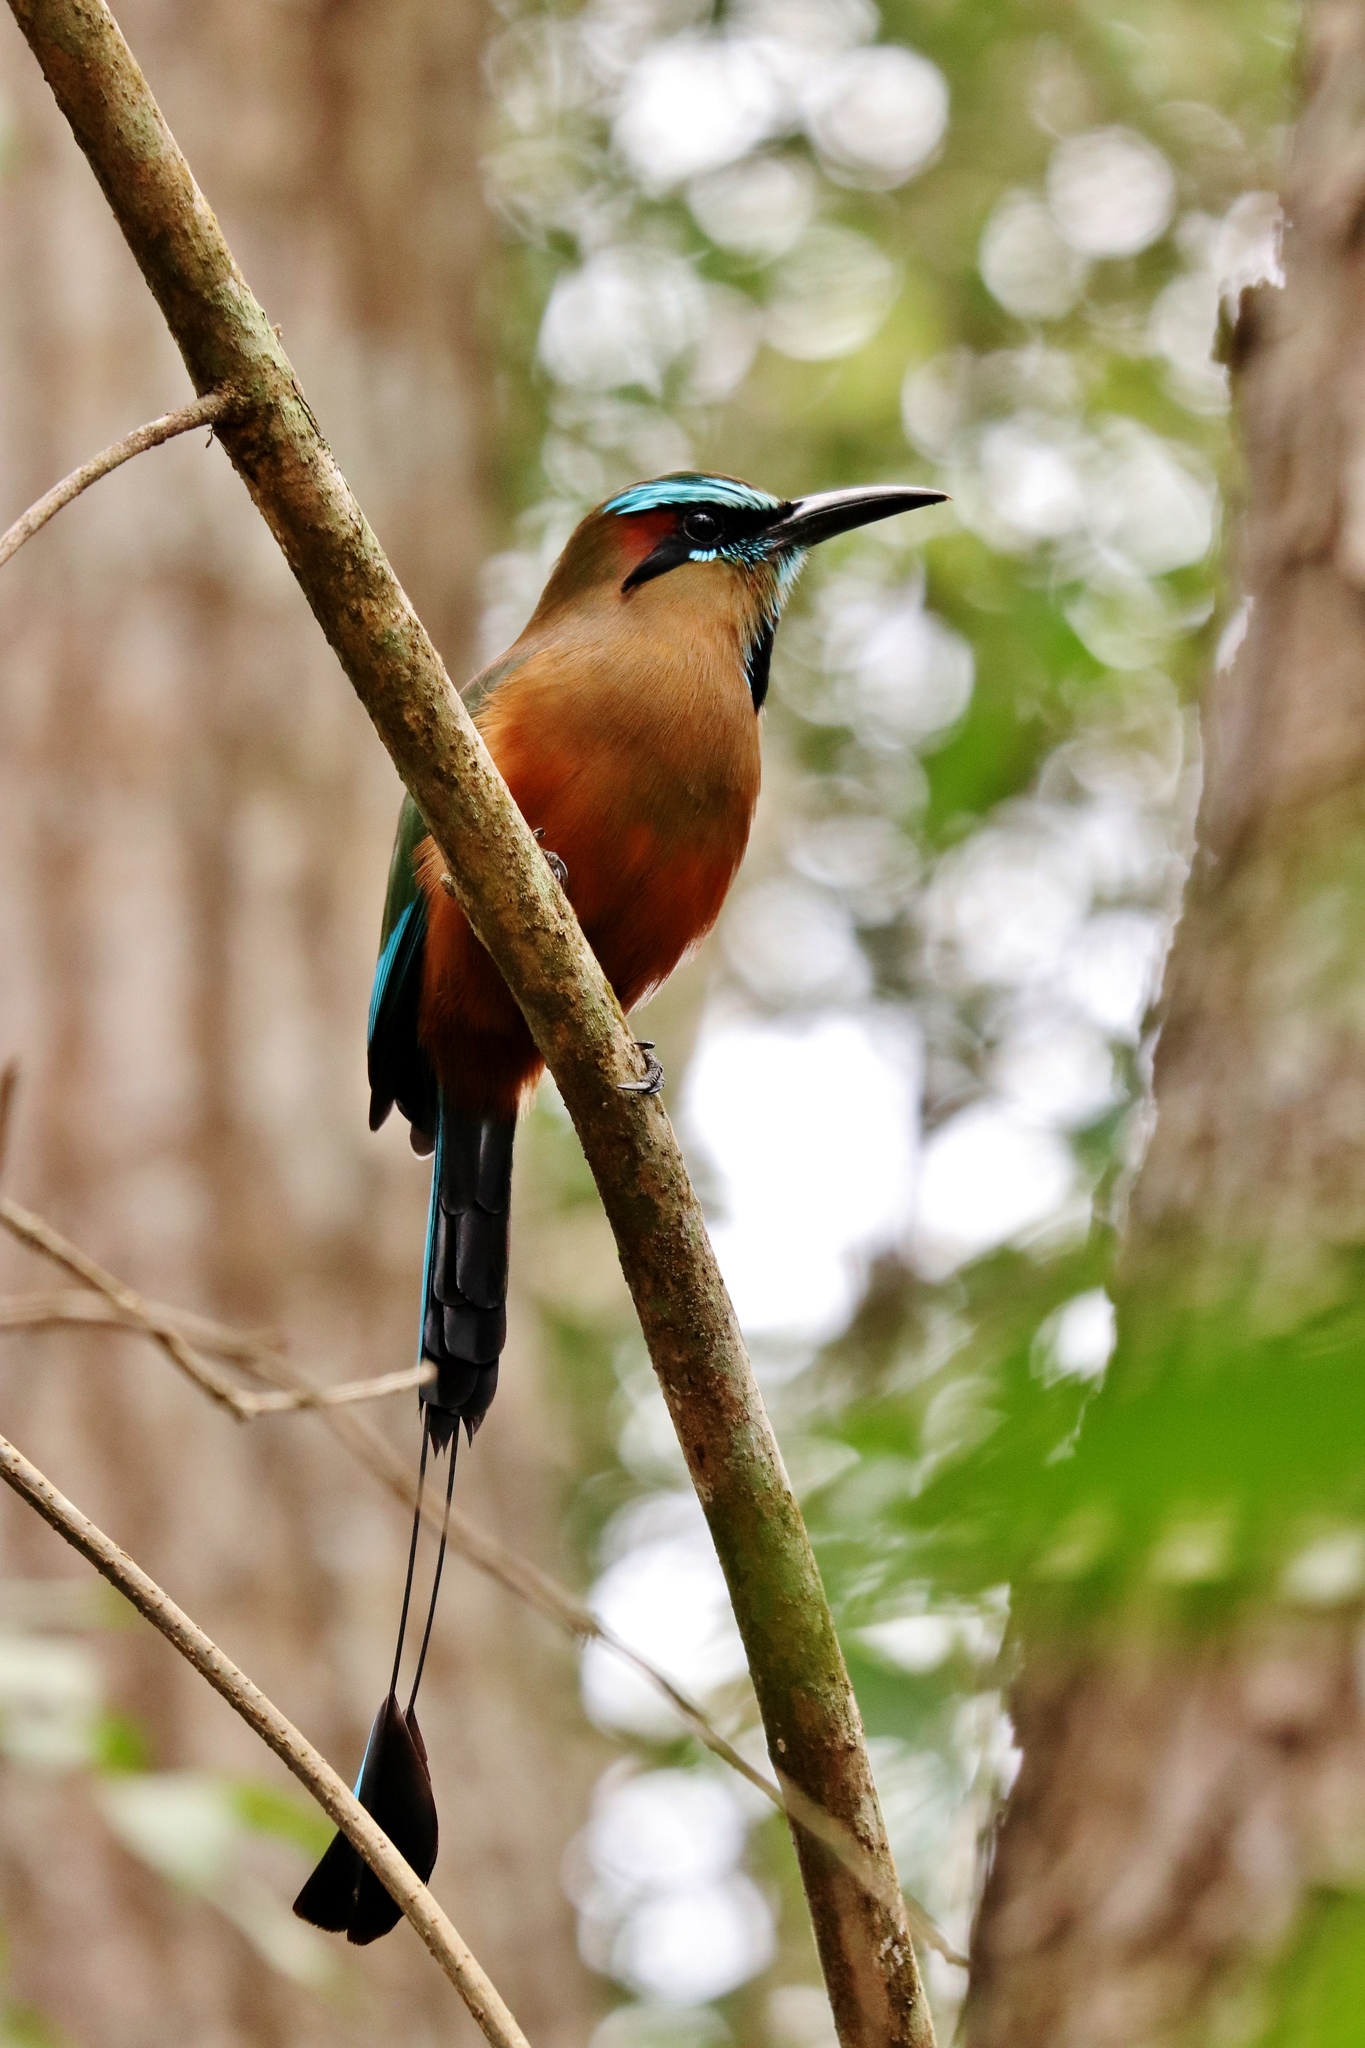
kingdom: Animalia
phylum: Chordata
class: Aves
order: Coraciiformes
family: Momotidae
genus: Eumomota
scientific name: Eumomota superciliosa
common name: Turquoise-browed motmot
